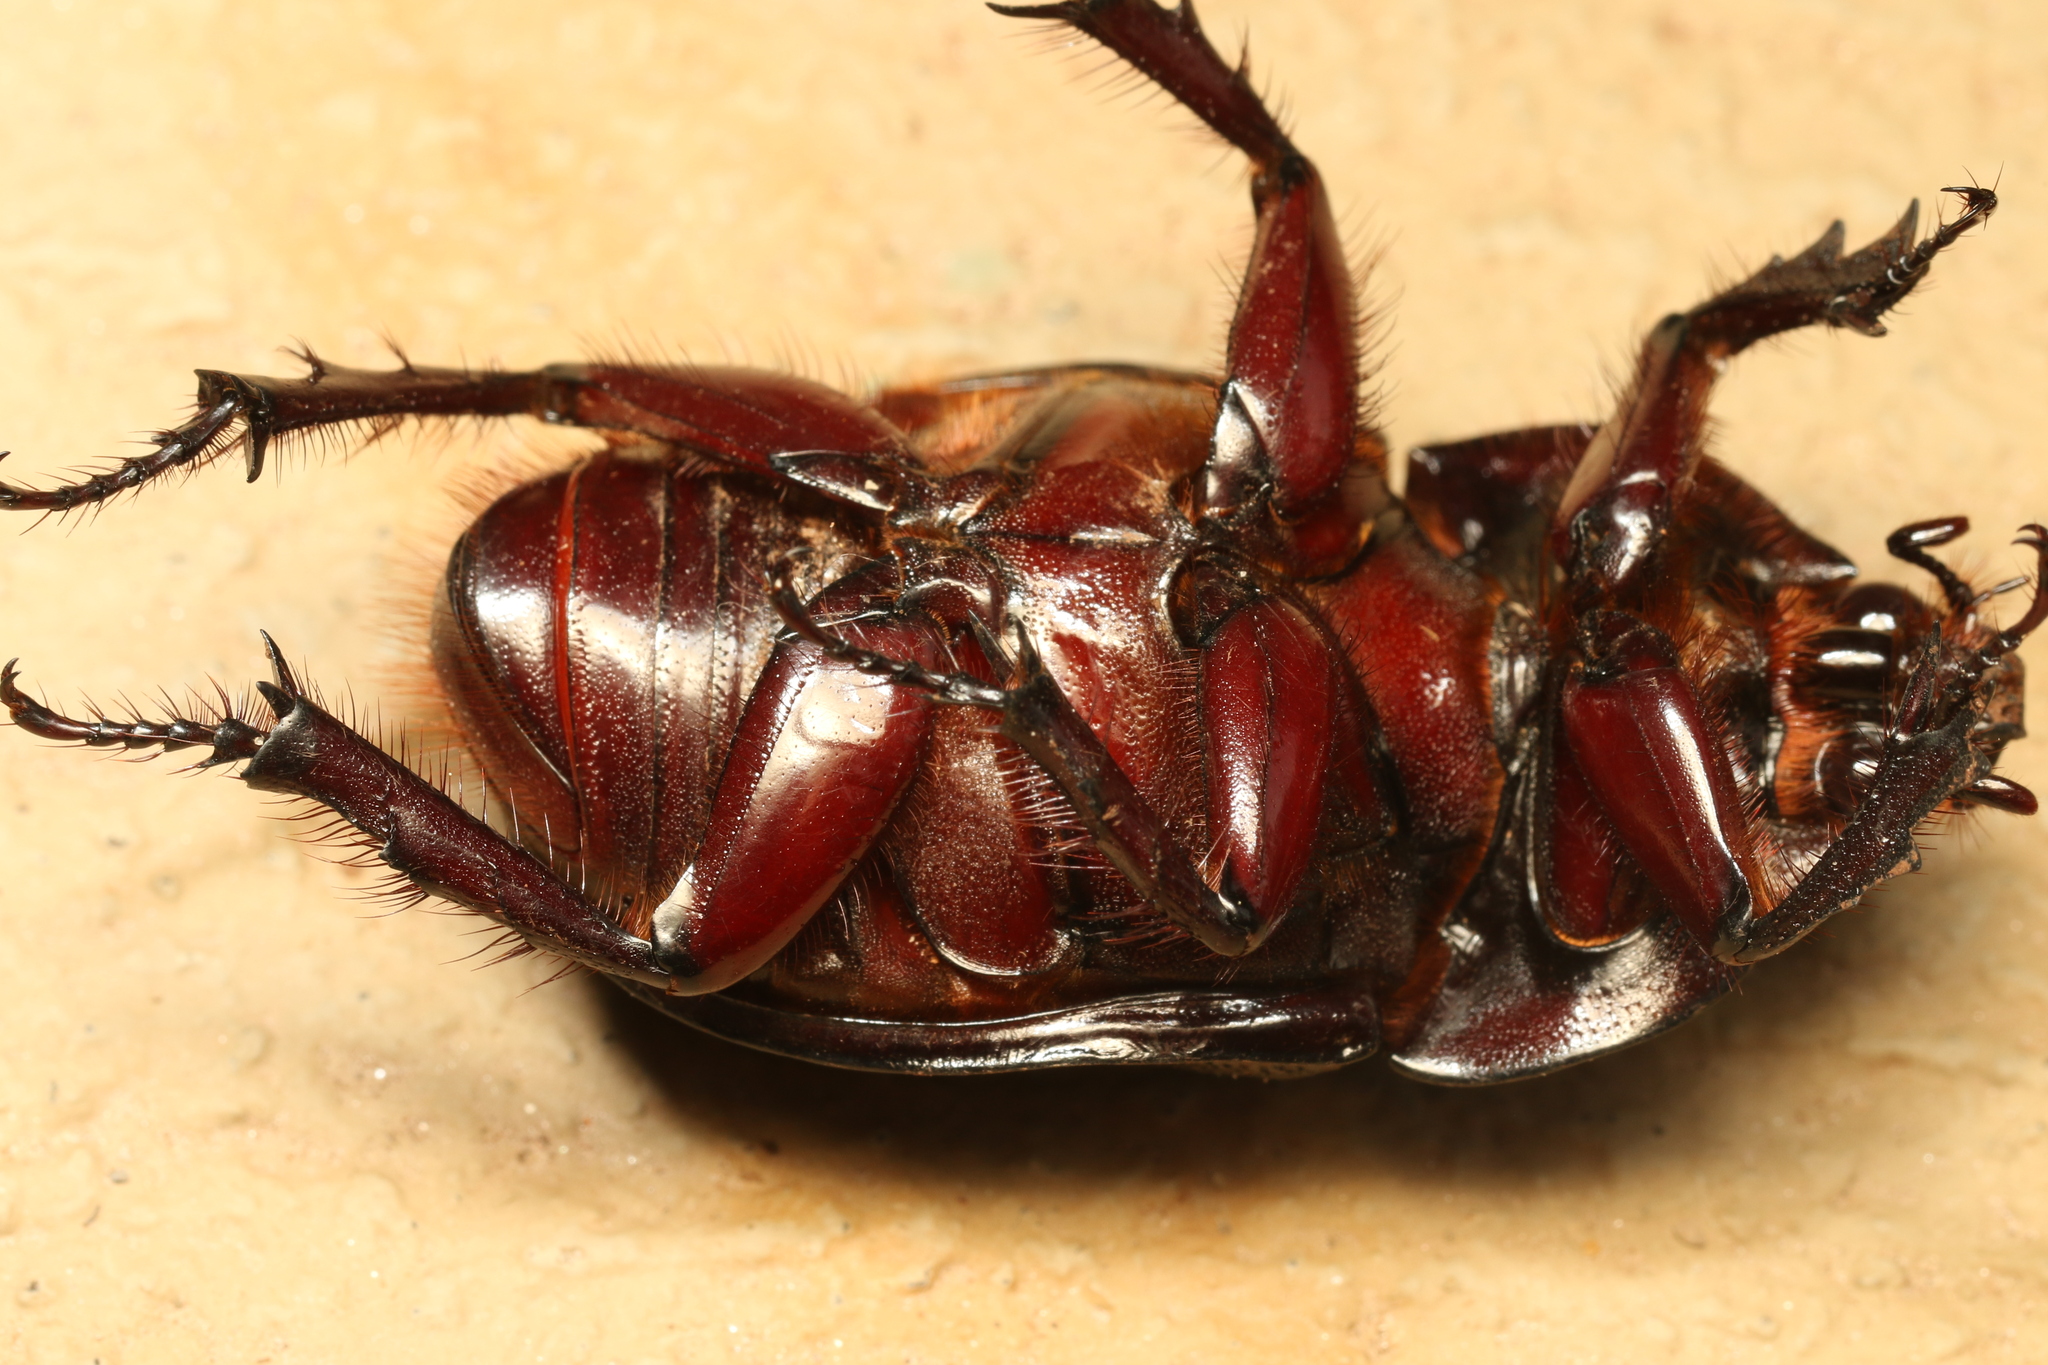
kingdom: Animalia
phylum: Arthropoda
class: Insecta
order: Coleoptera
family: Scarabaeidae
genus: Enema
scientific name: Enema pan
